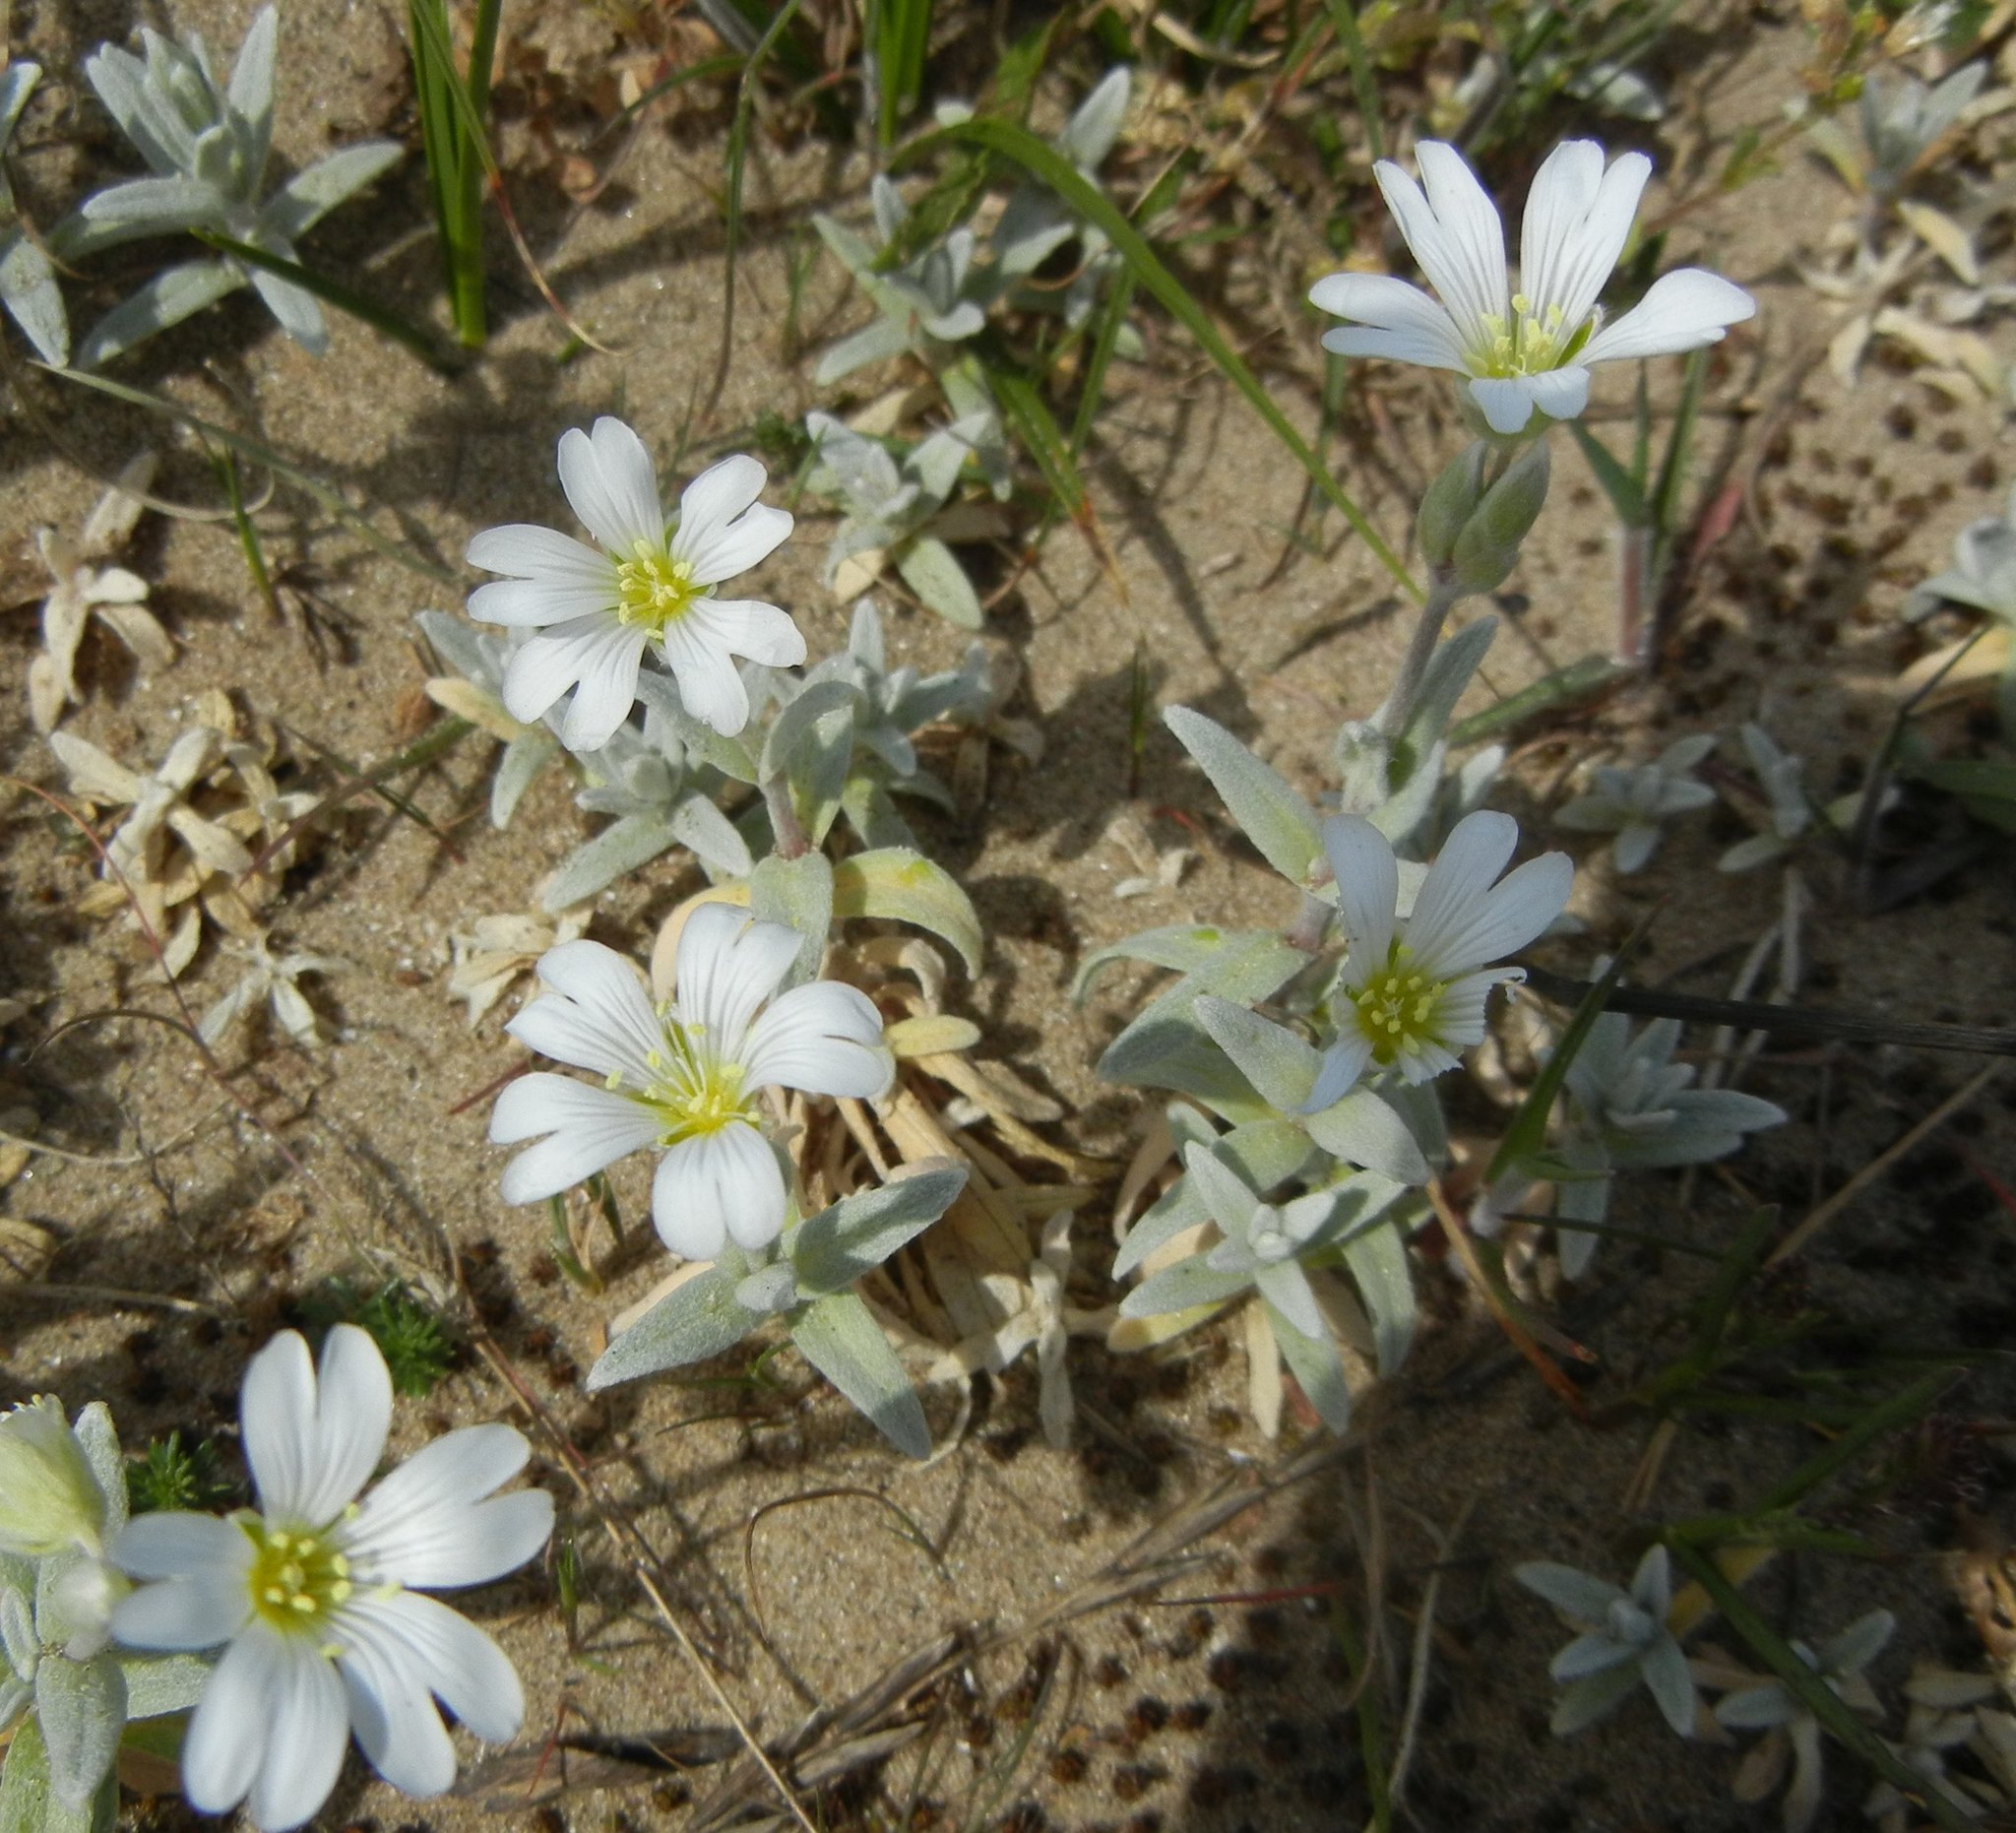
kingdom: Plantae
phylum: Tracheophyta
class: Magnoliopsida
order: Caryophyllales
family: Caryophyllaceae
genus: Cerastium
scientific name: Cerastium tomentosum
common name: Snow-in-summer
